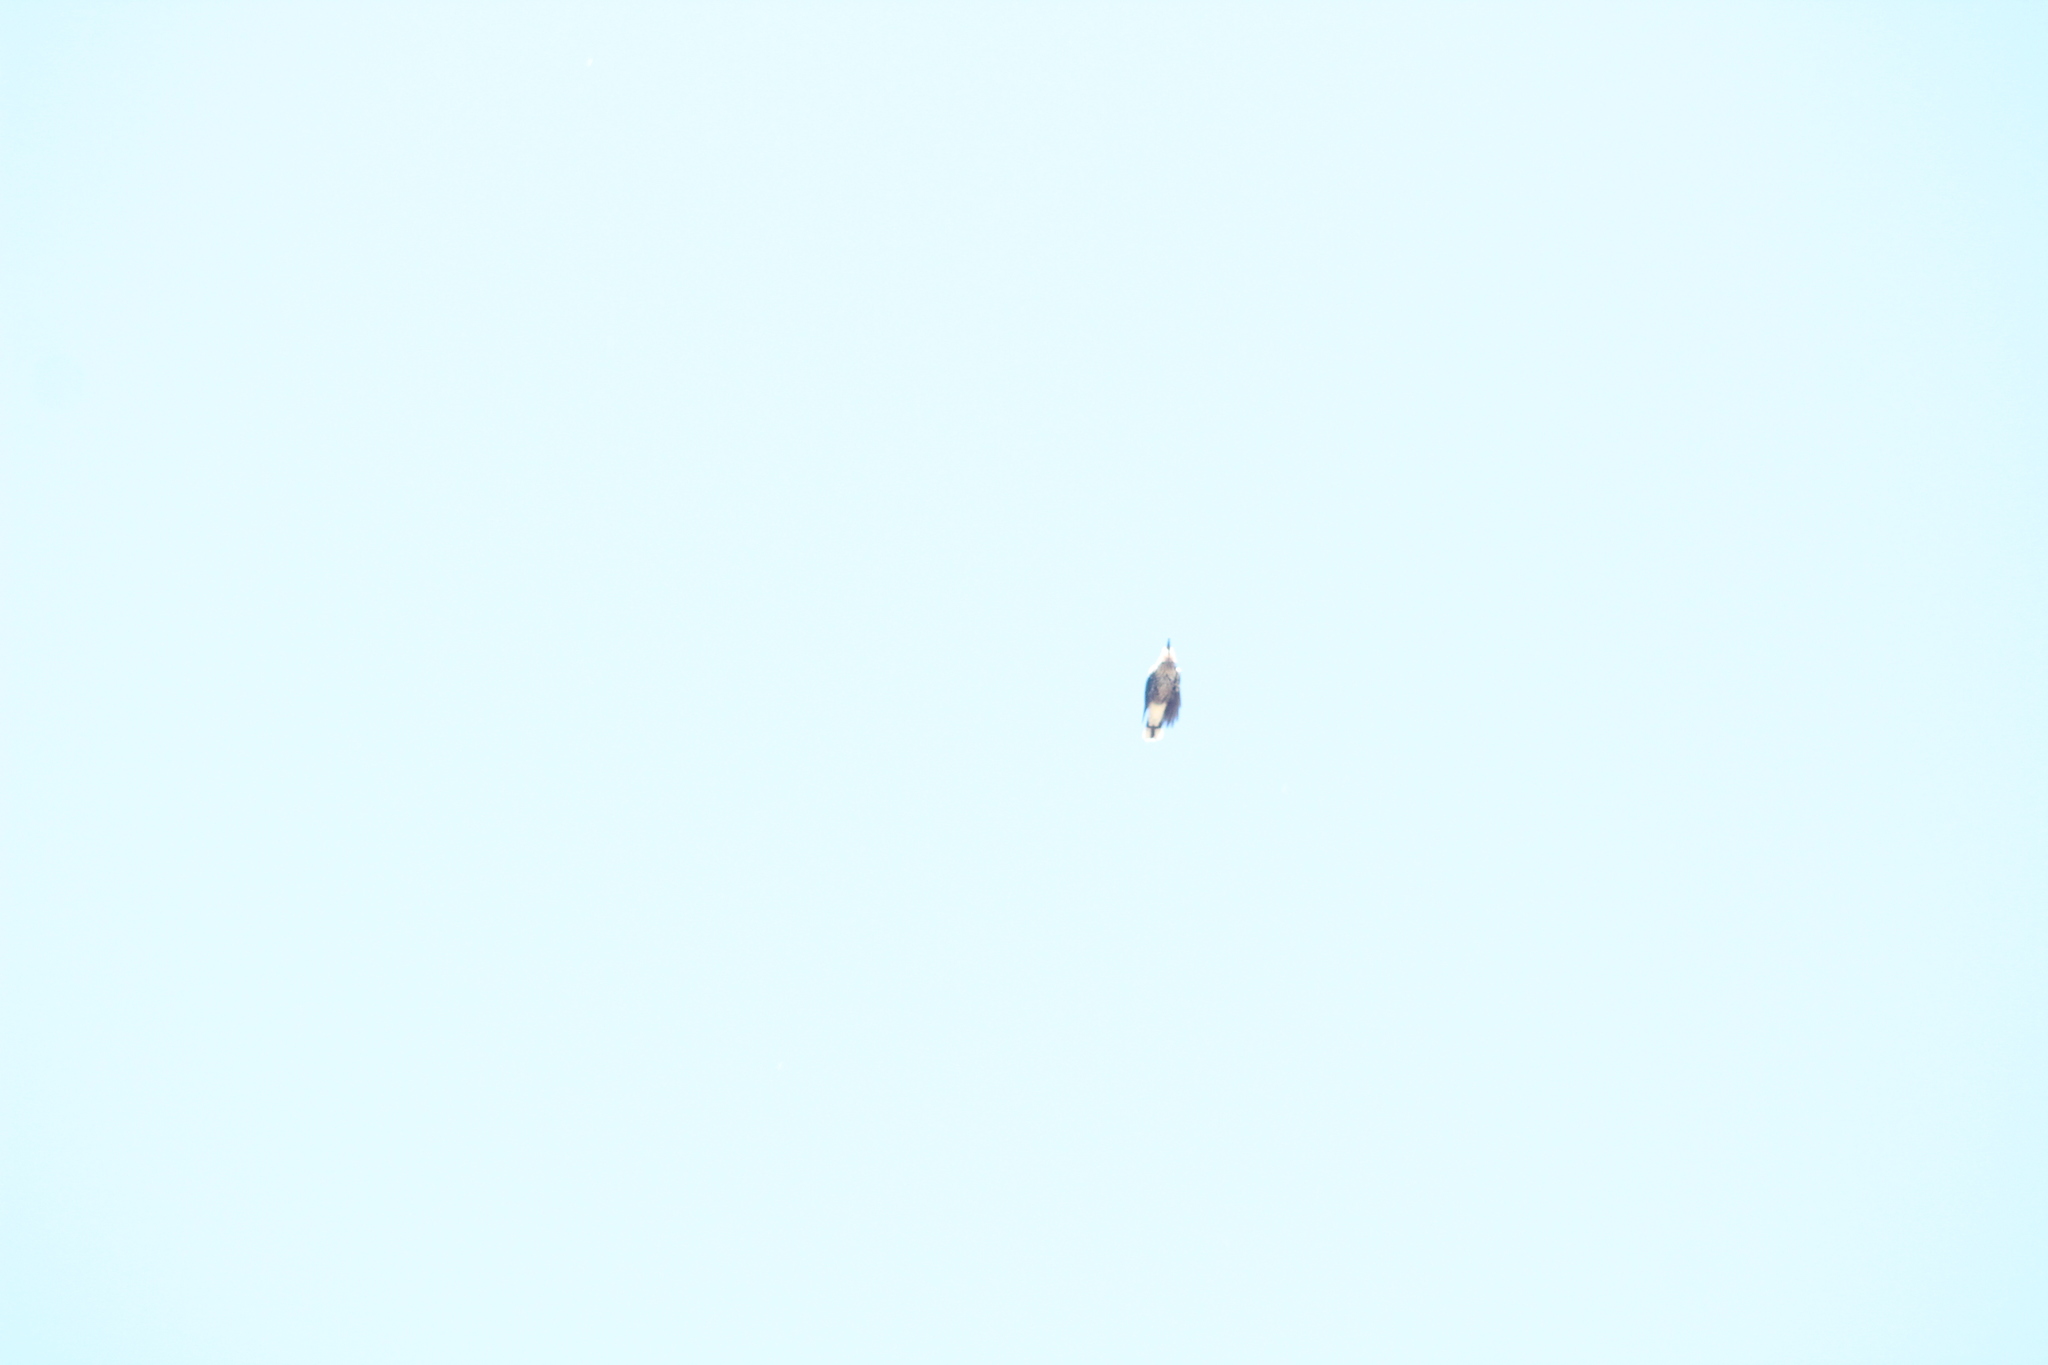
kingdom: Animalia
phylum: Chordata
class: Aves
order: Passeriformes
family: Corvidae
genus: Nucifraga
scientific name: Nucifraga caryocatactes
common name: Spotted nutcracker
